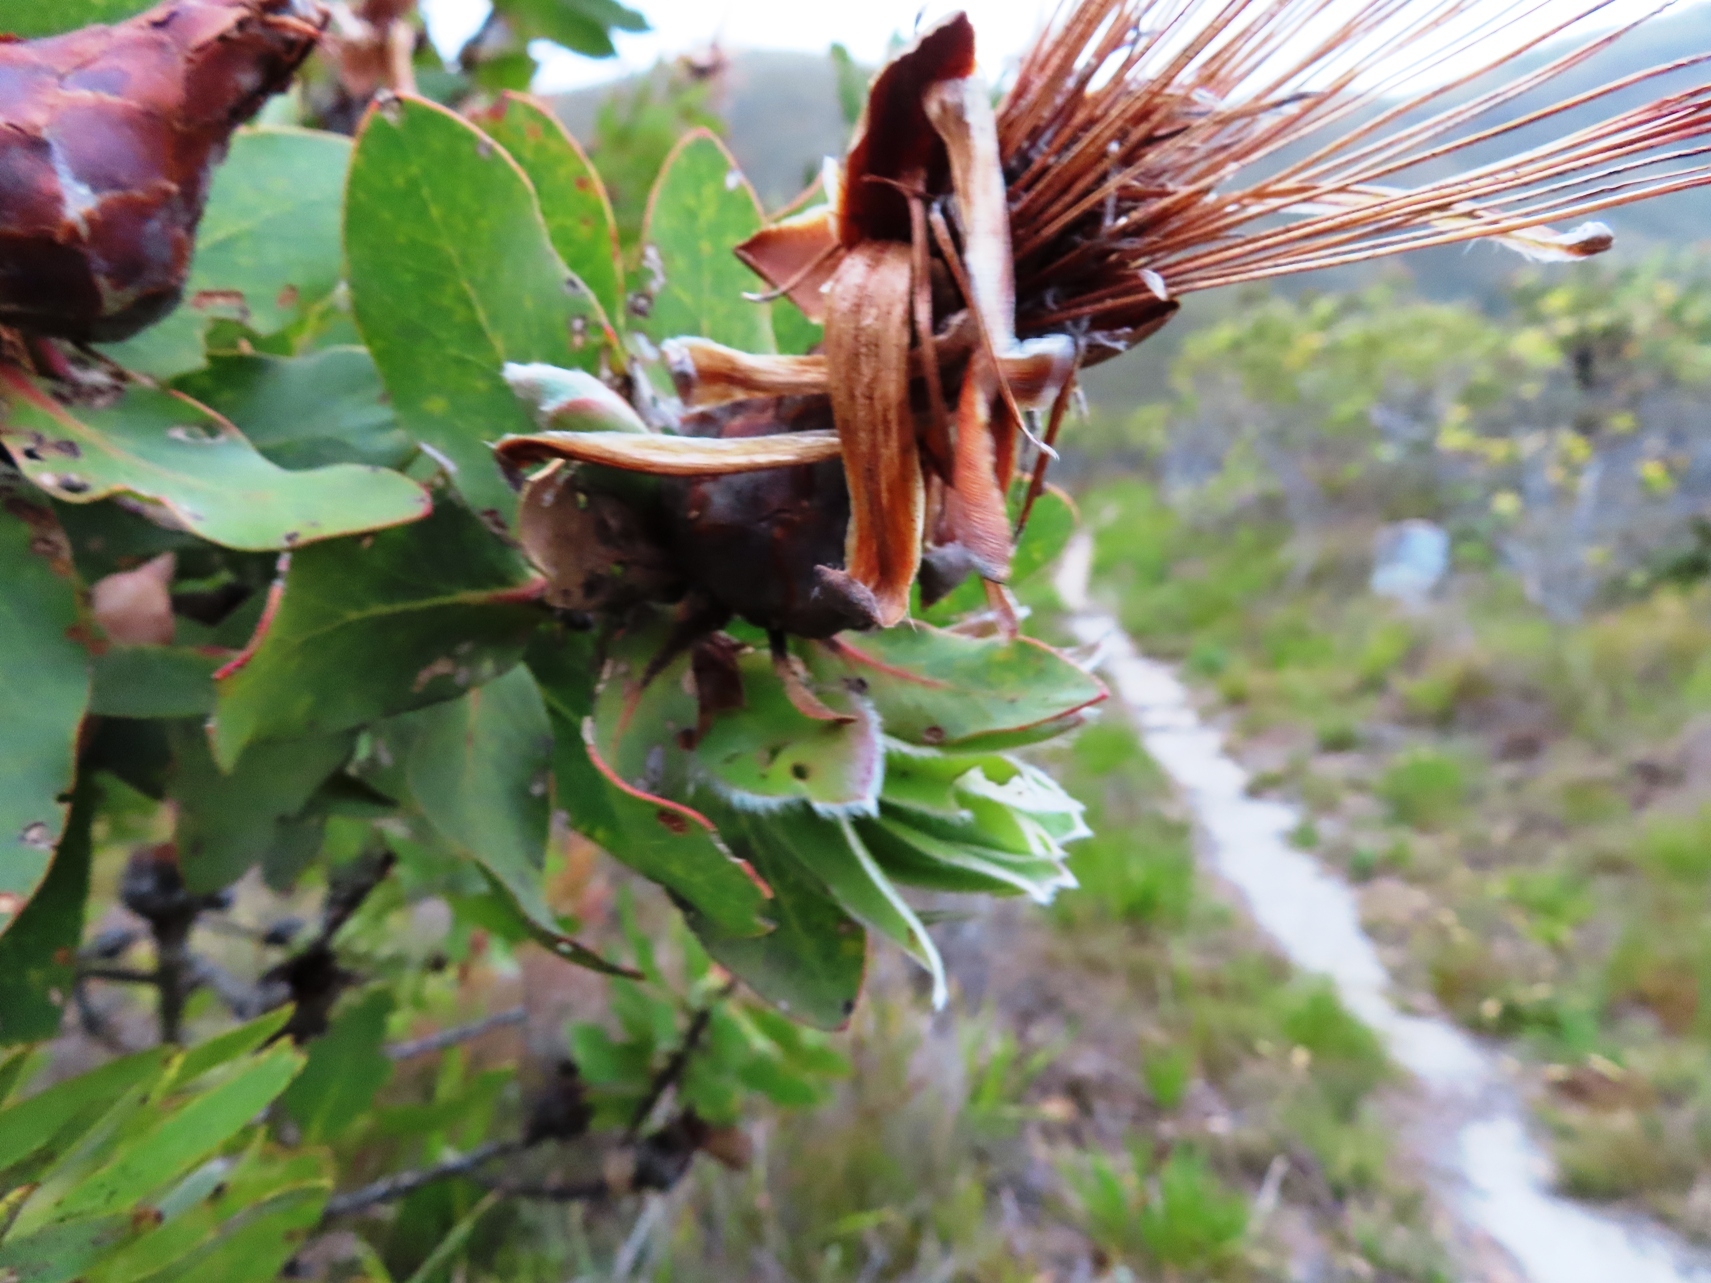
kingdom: Plantae
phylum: Tracheophyta
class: Magnoliopsida
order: Proteales
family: Proteaceae
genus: Protea
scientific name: Protea aurea
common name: Shuttlecock sugarbush
